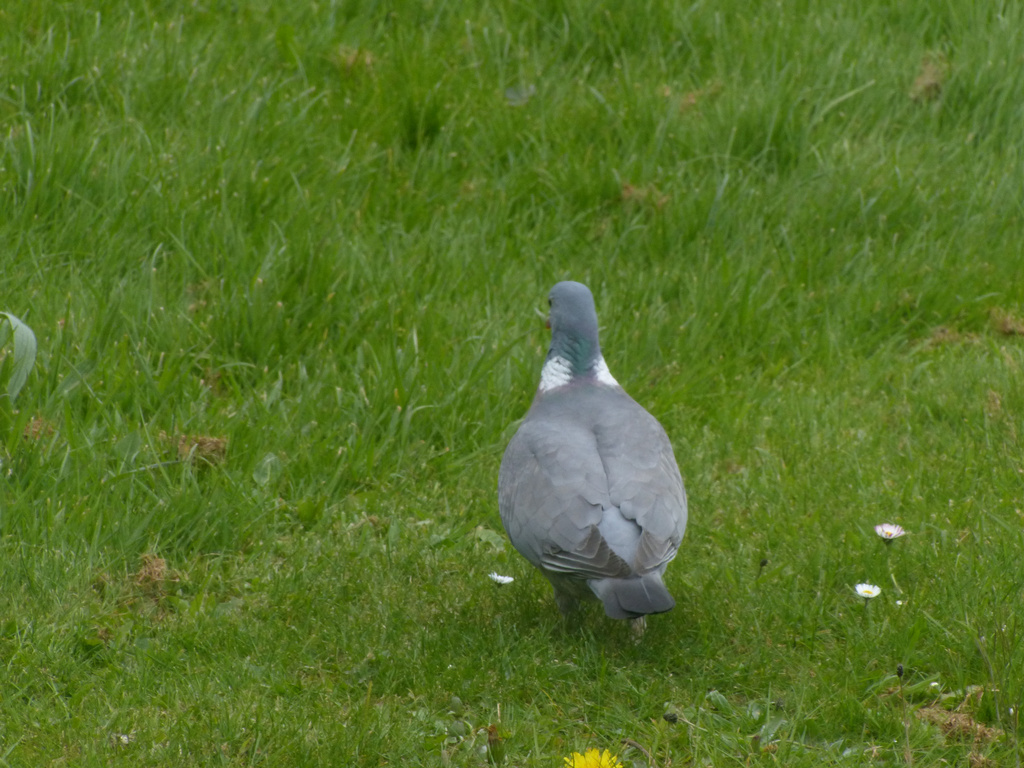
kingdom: Animalia
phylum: Chordata
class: Aves
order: Columbiformes
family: Columbidae
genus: Columba
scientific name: Columba palumbus
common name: Common wood pigeon
